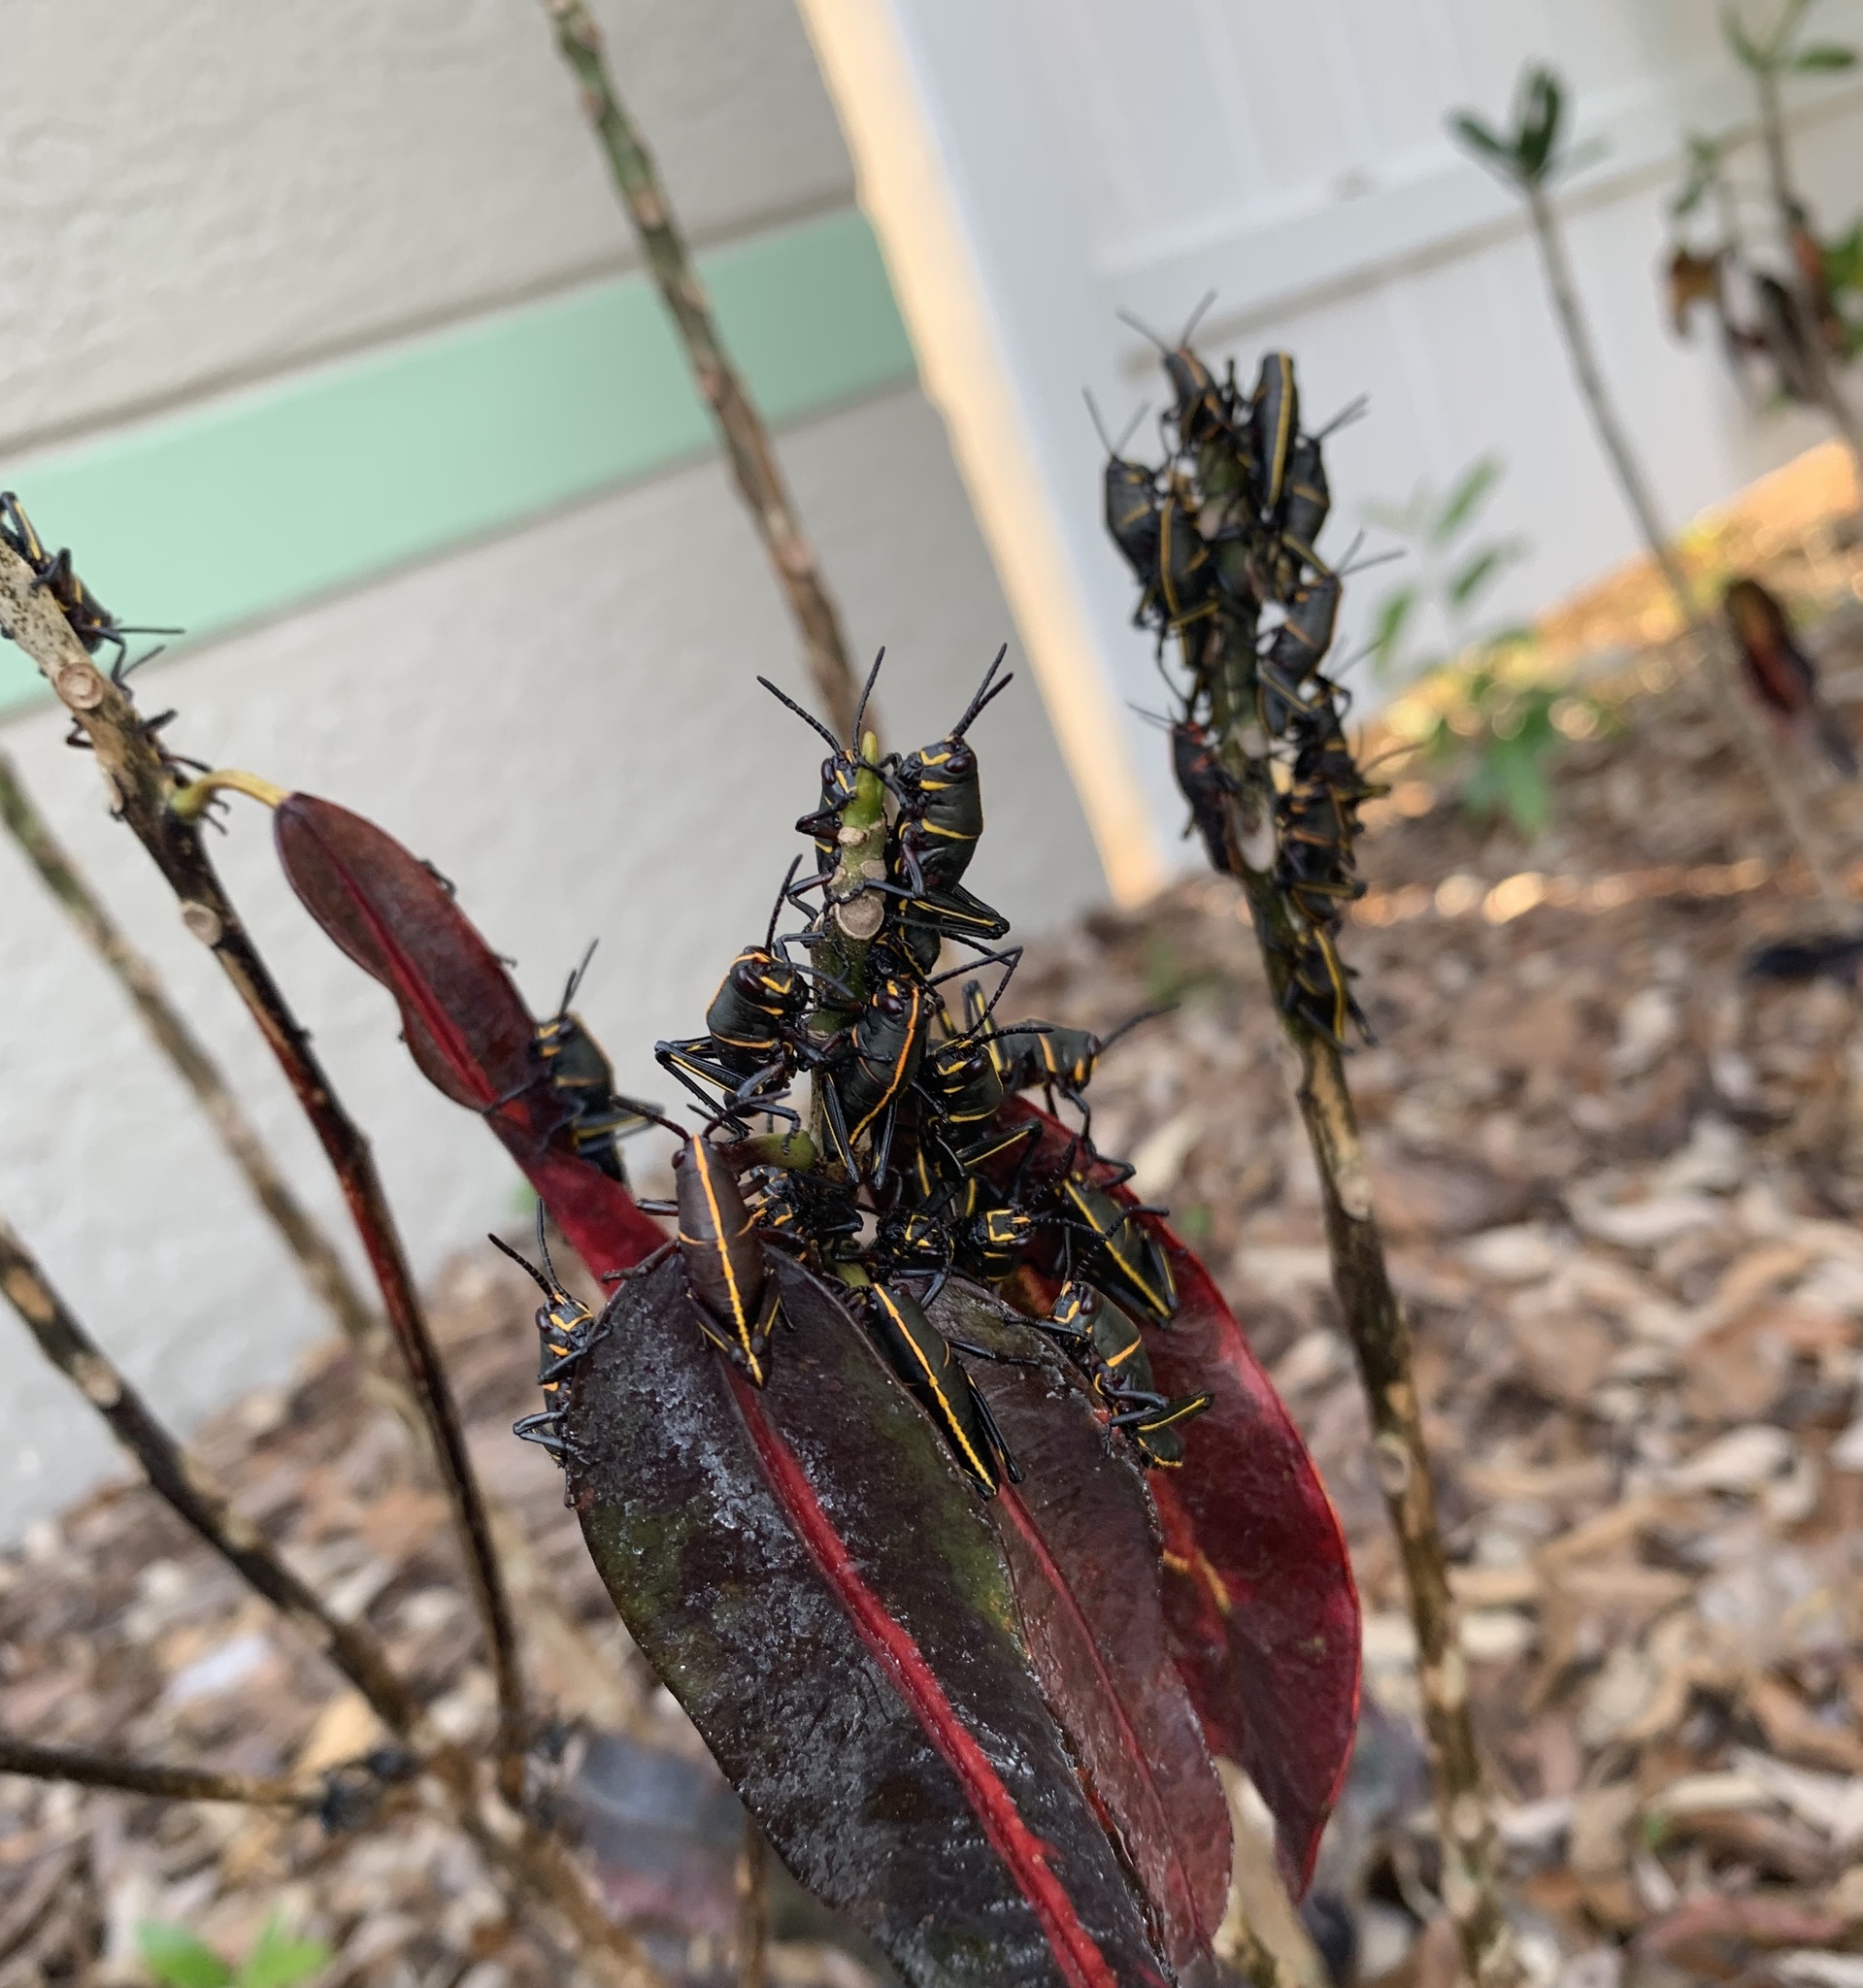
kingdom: Animalia
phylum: Arthropoda
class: Insecta
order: Orthoptera
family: Romaleidae
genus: Romalea
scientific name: Romalea microptera
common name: Eastern lubber grasshopper
